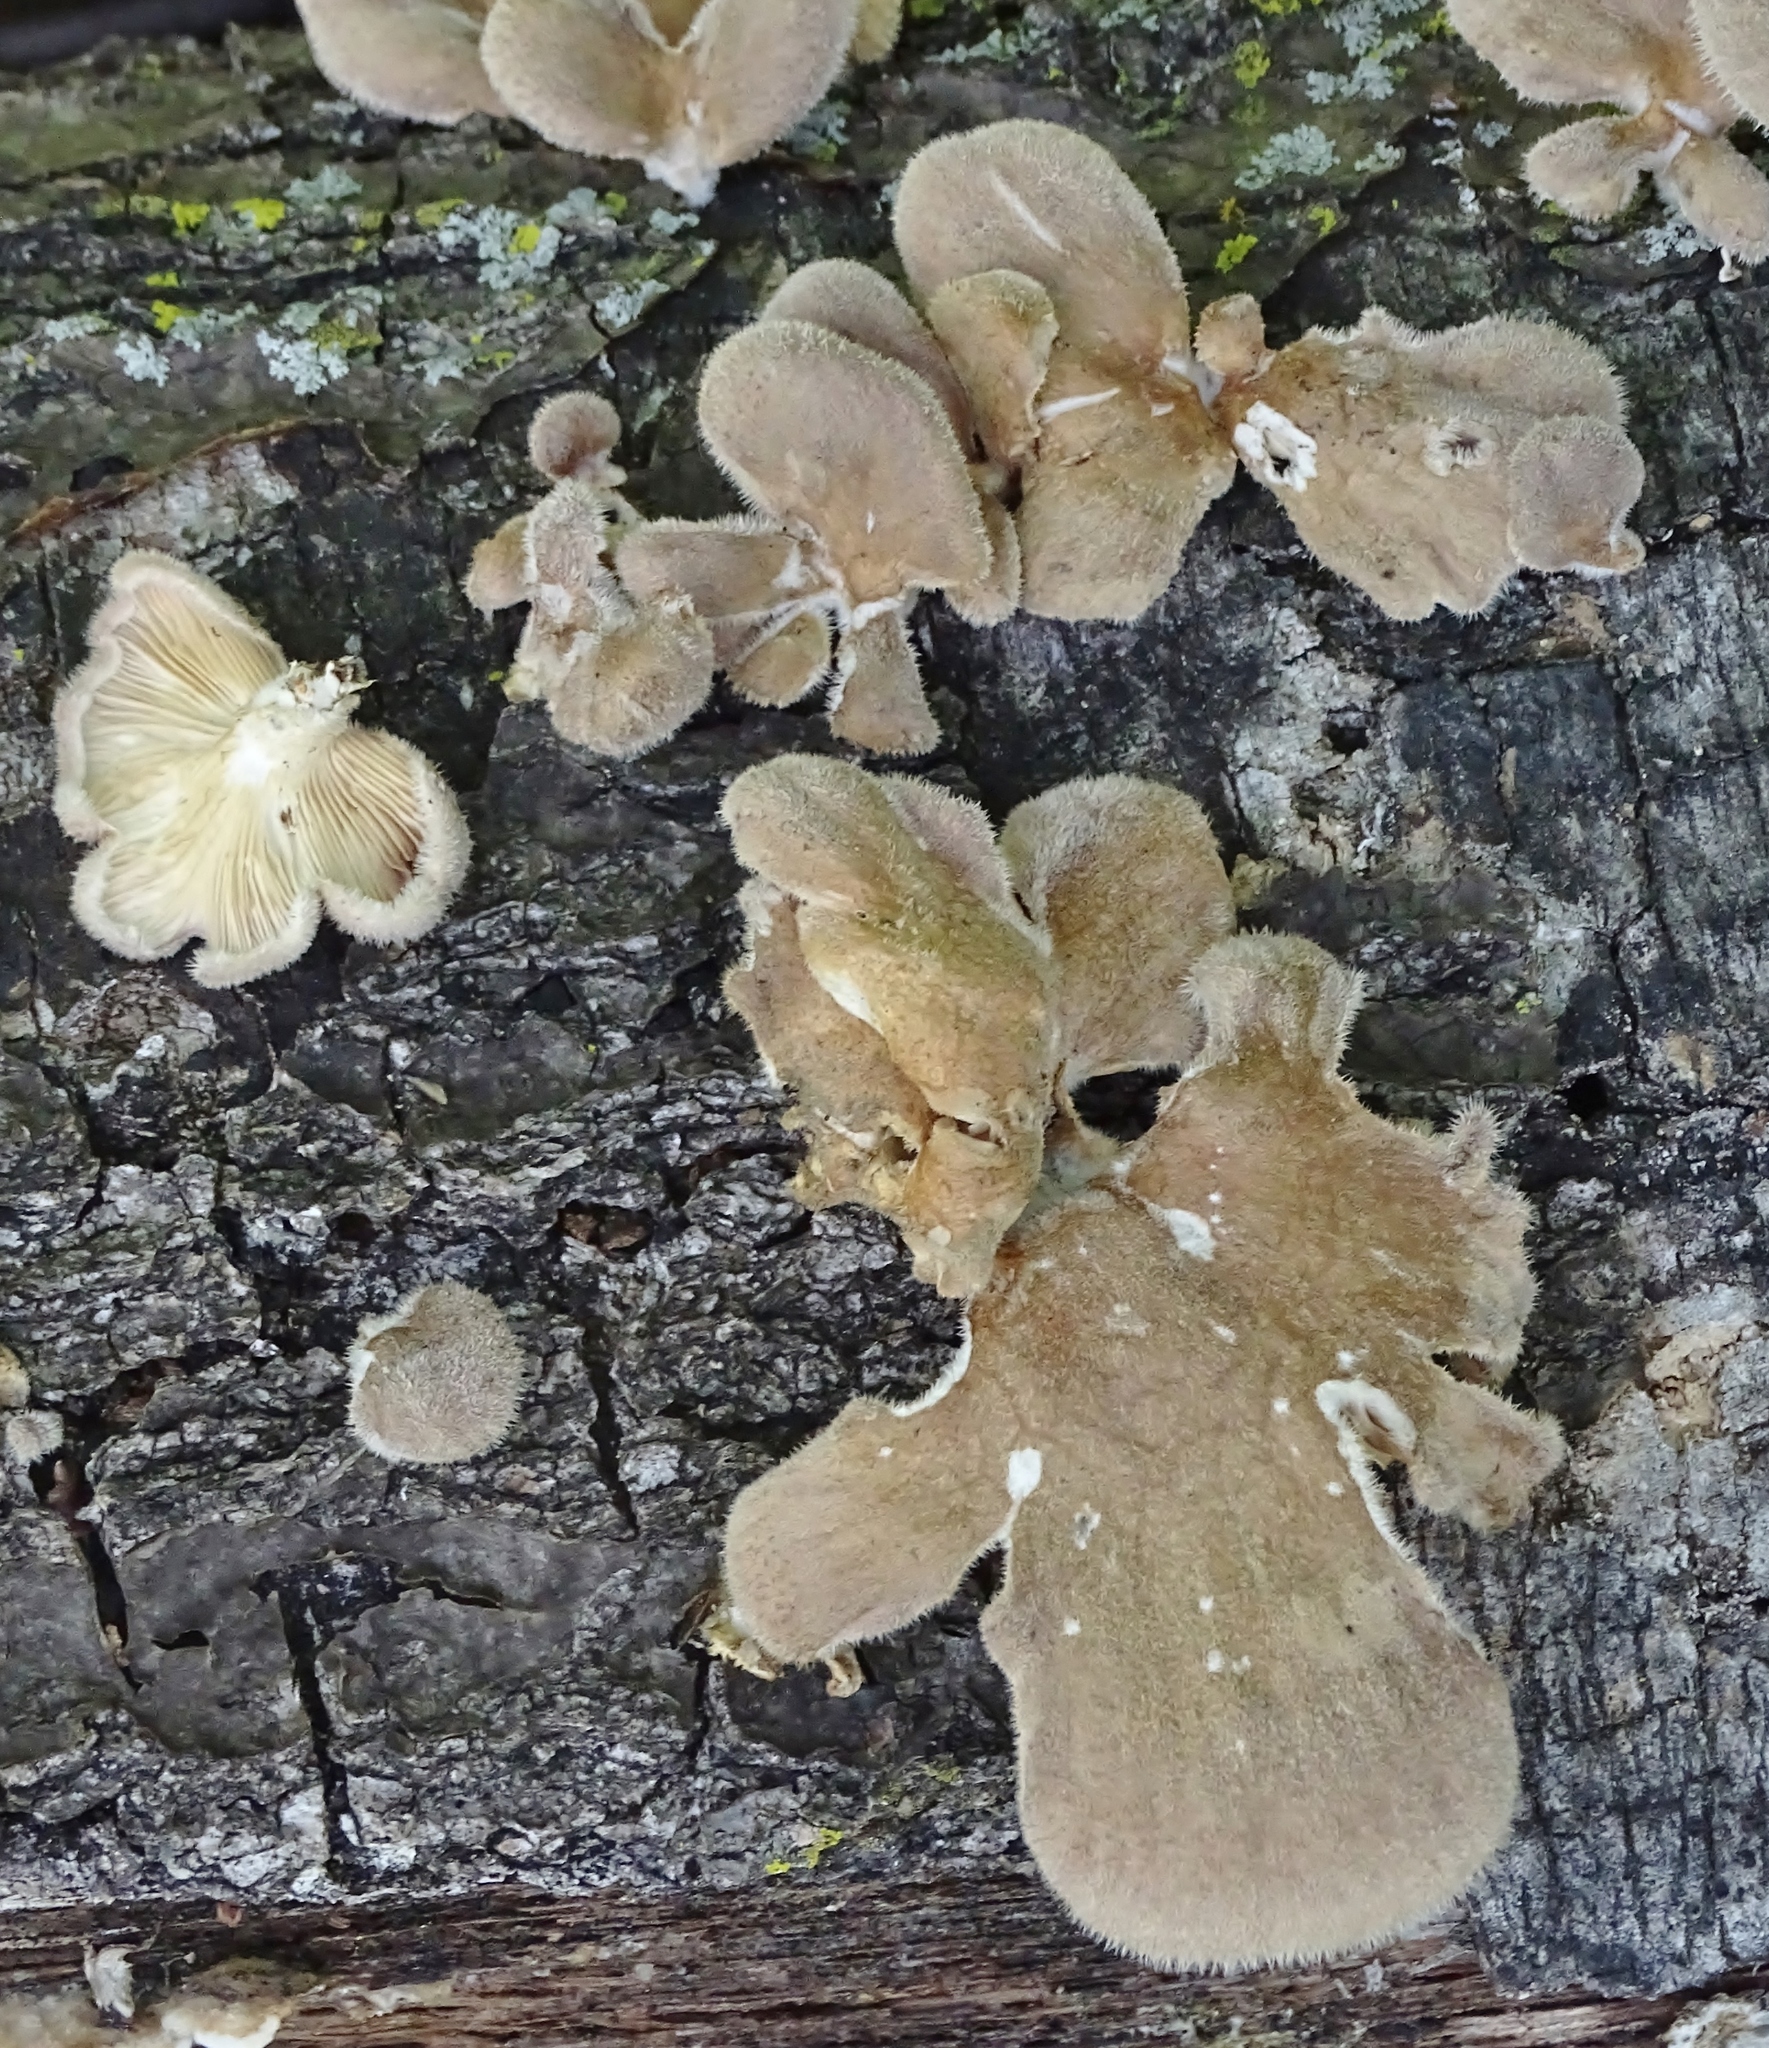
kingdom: Fungi
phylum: Basidiomycota
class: Agaricomycetes
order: Polyporales
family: Panaceae
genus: Panus
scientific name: Panus neostrigosus
